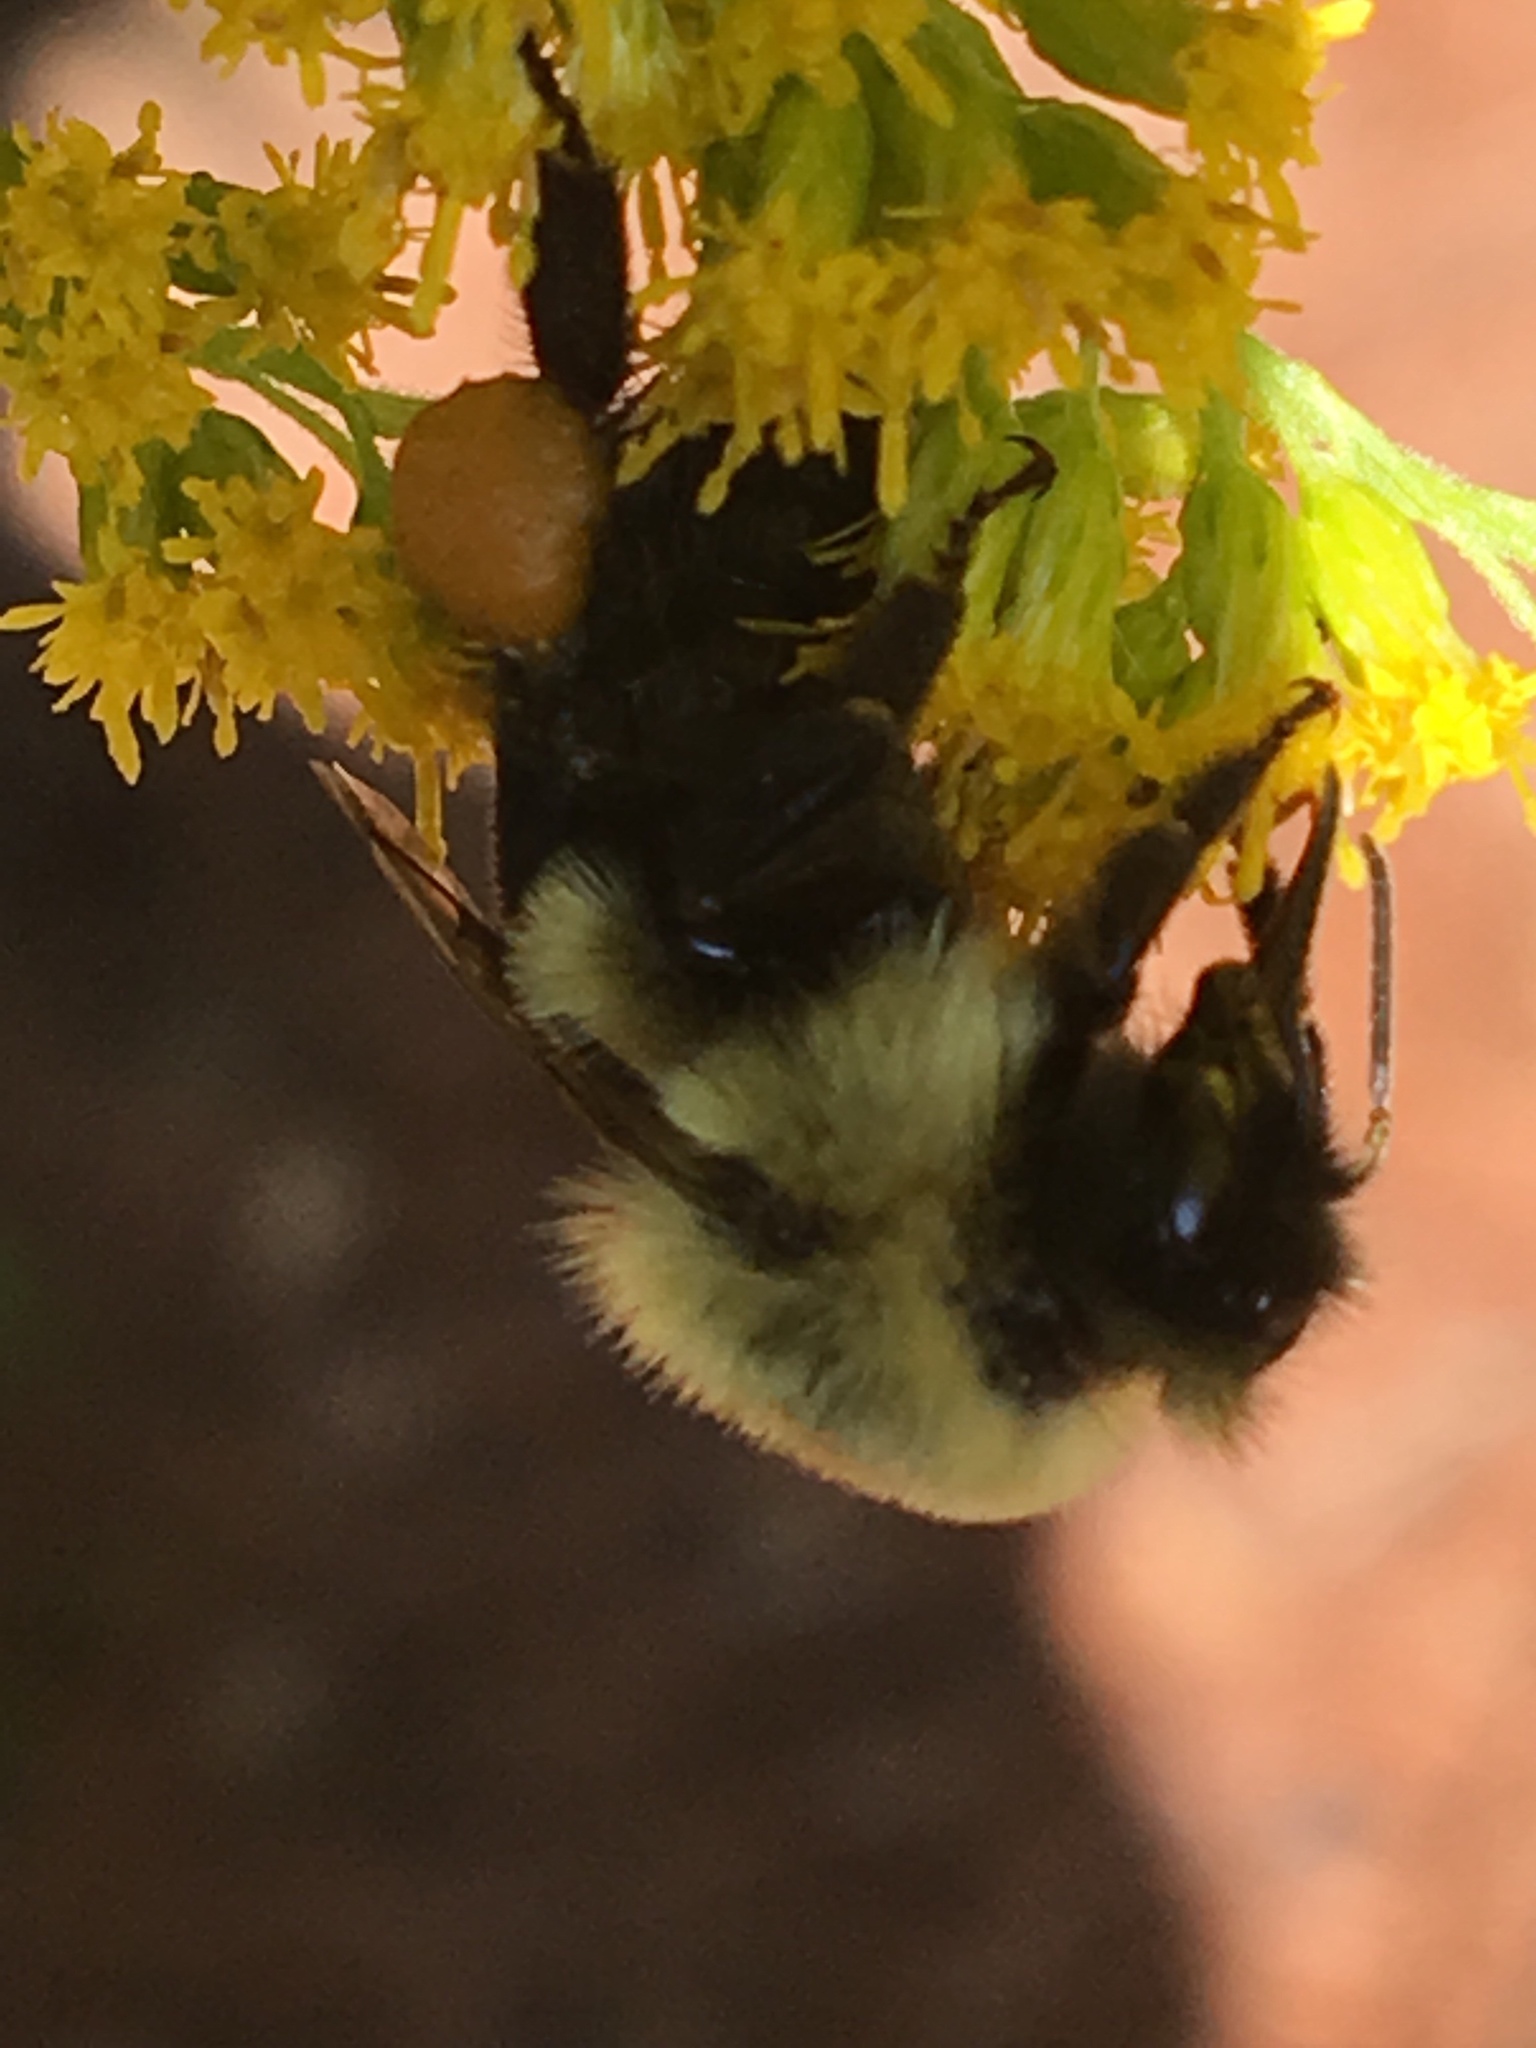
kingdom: Animalia
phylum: Arthropoda
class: Insecta
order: Hymenoptera
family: Apidae
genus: Bombus
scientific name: Bombus impatiens
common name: Common eastern bumble bee
